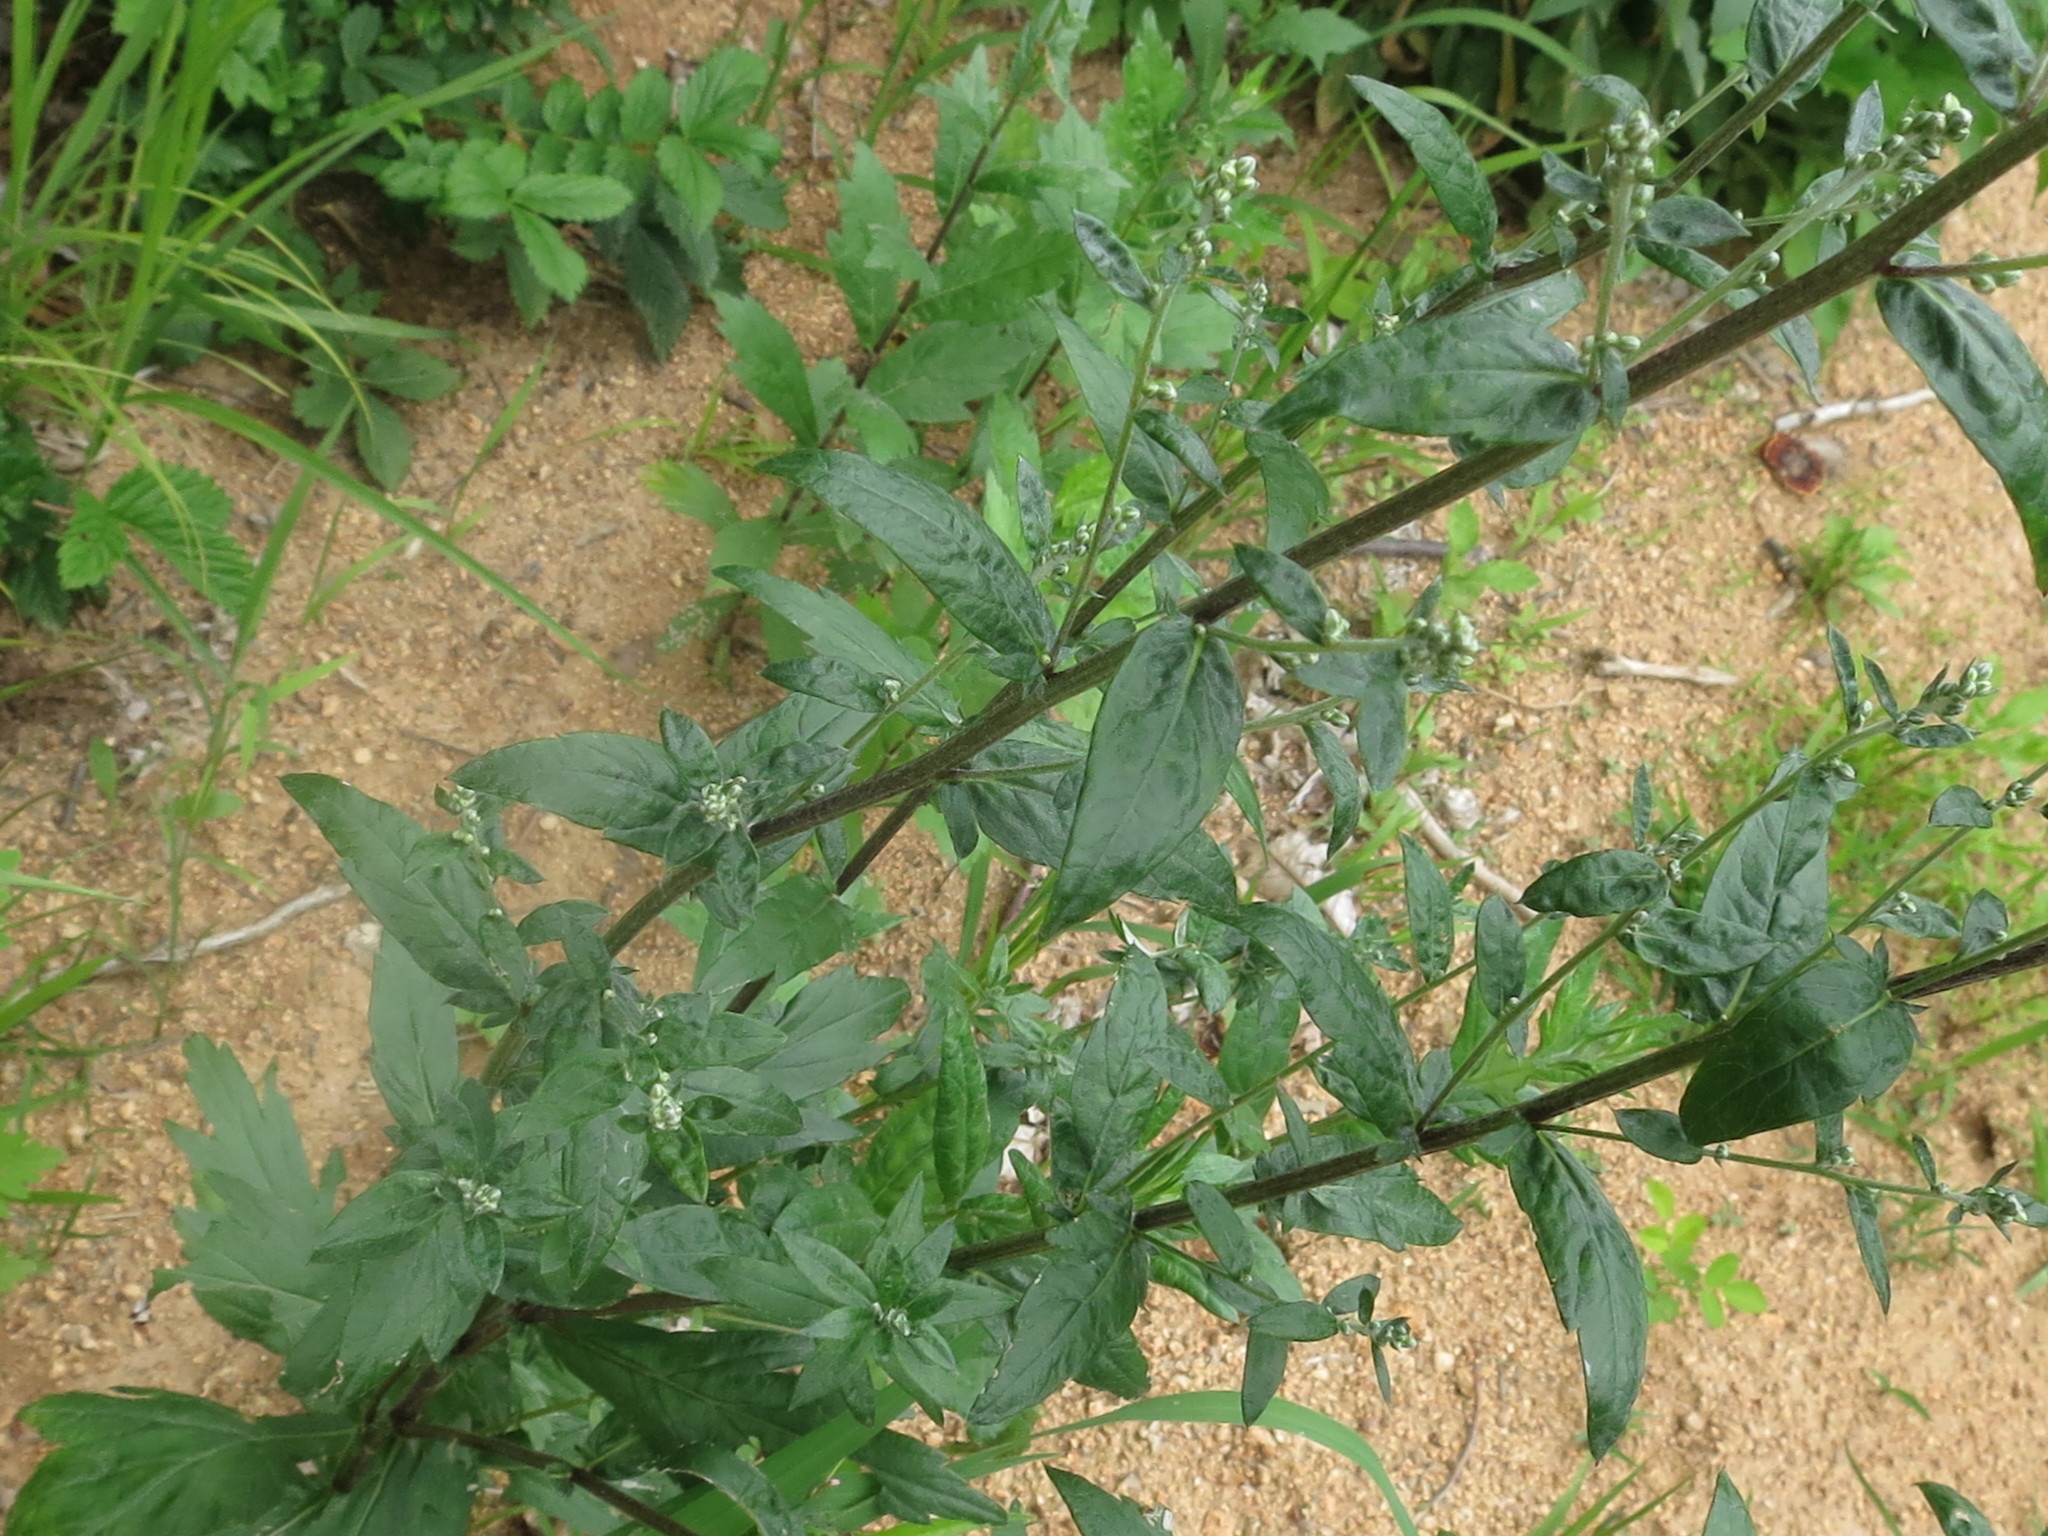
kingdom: Plantae
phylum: Tracheophyta
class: Magnoliopsida
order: Asterales
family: Asteraceae
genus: Artemisia
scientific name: Artemisia stolonifera
